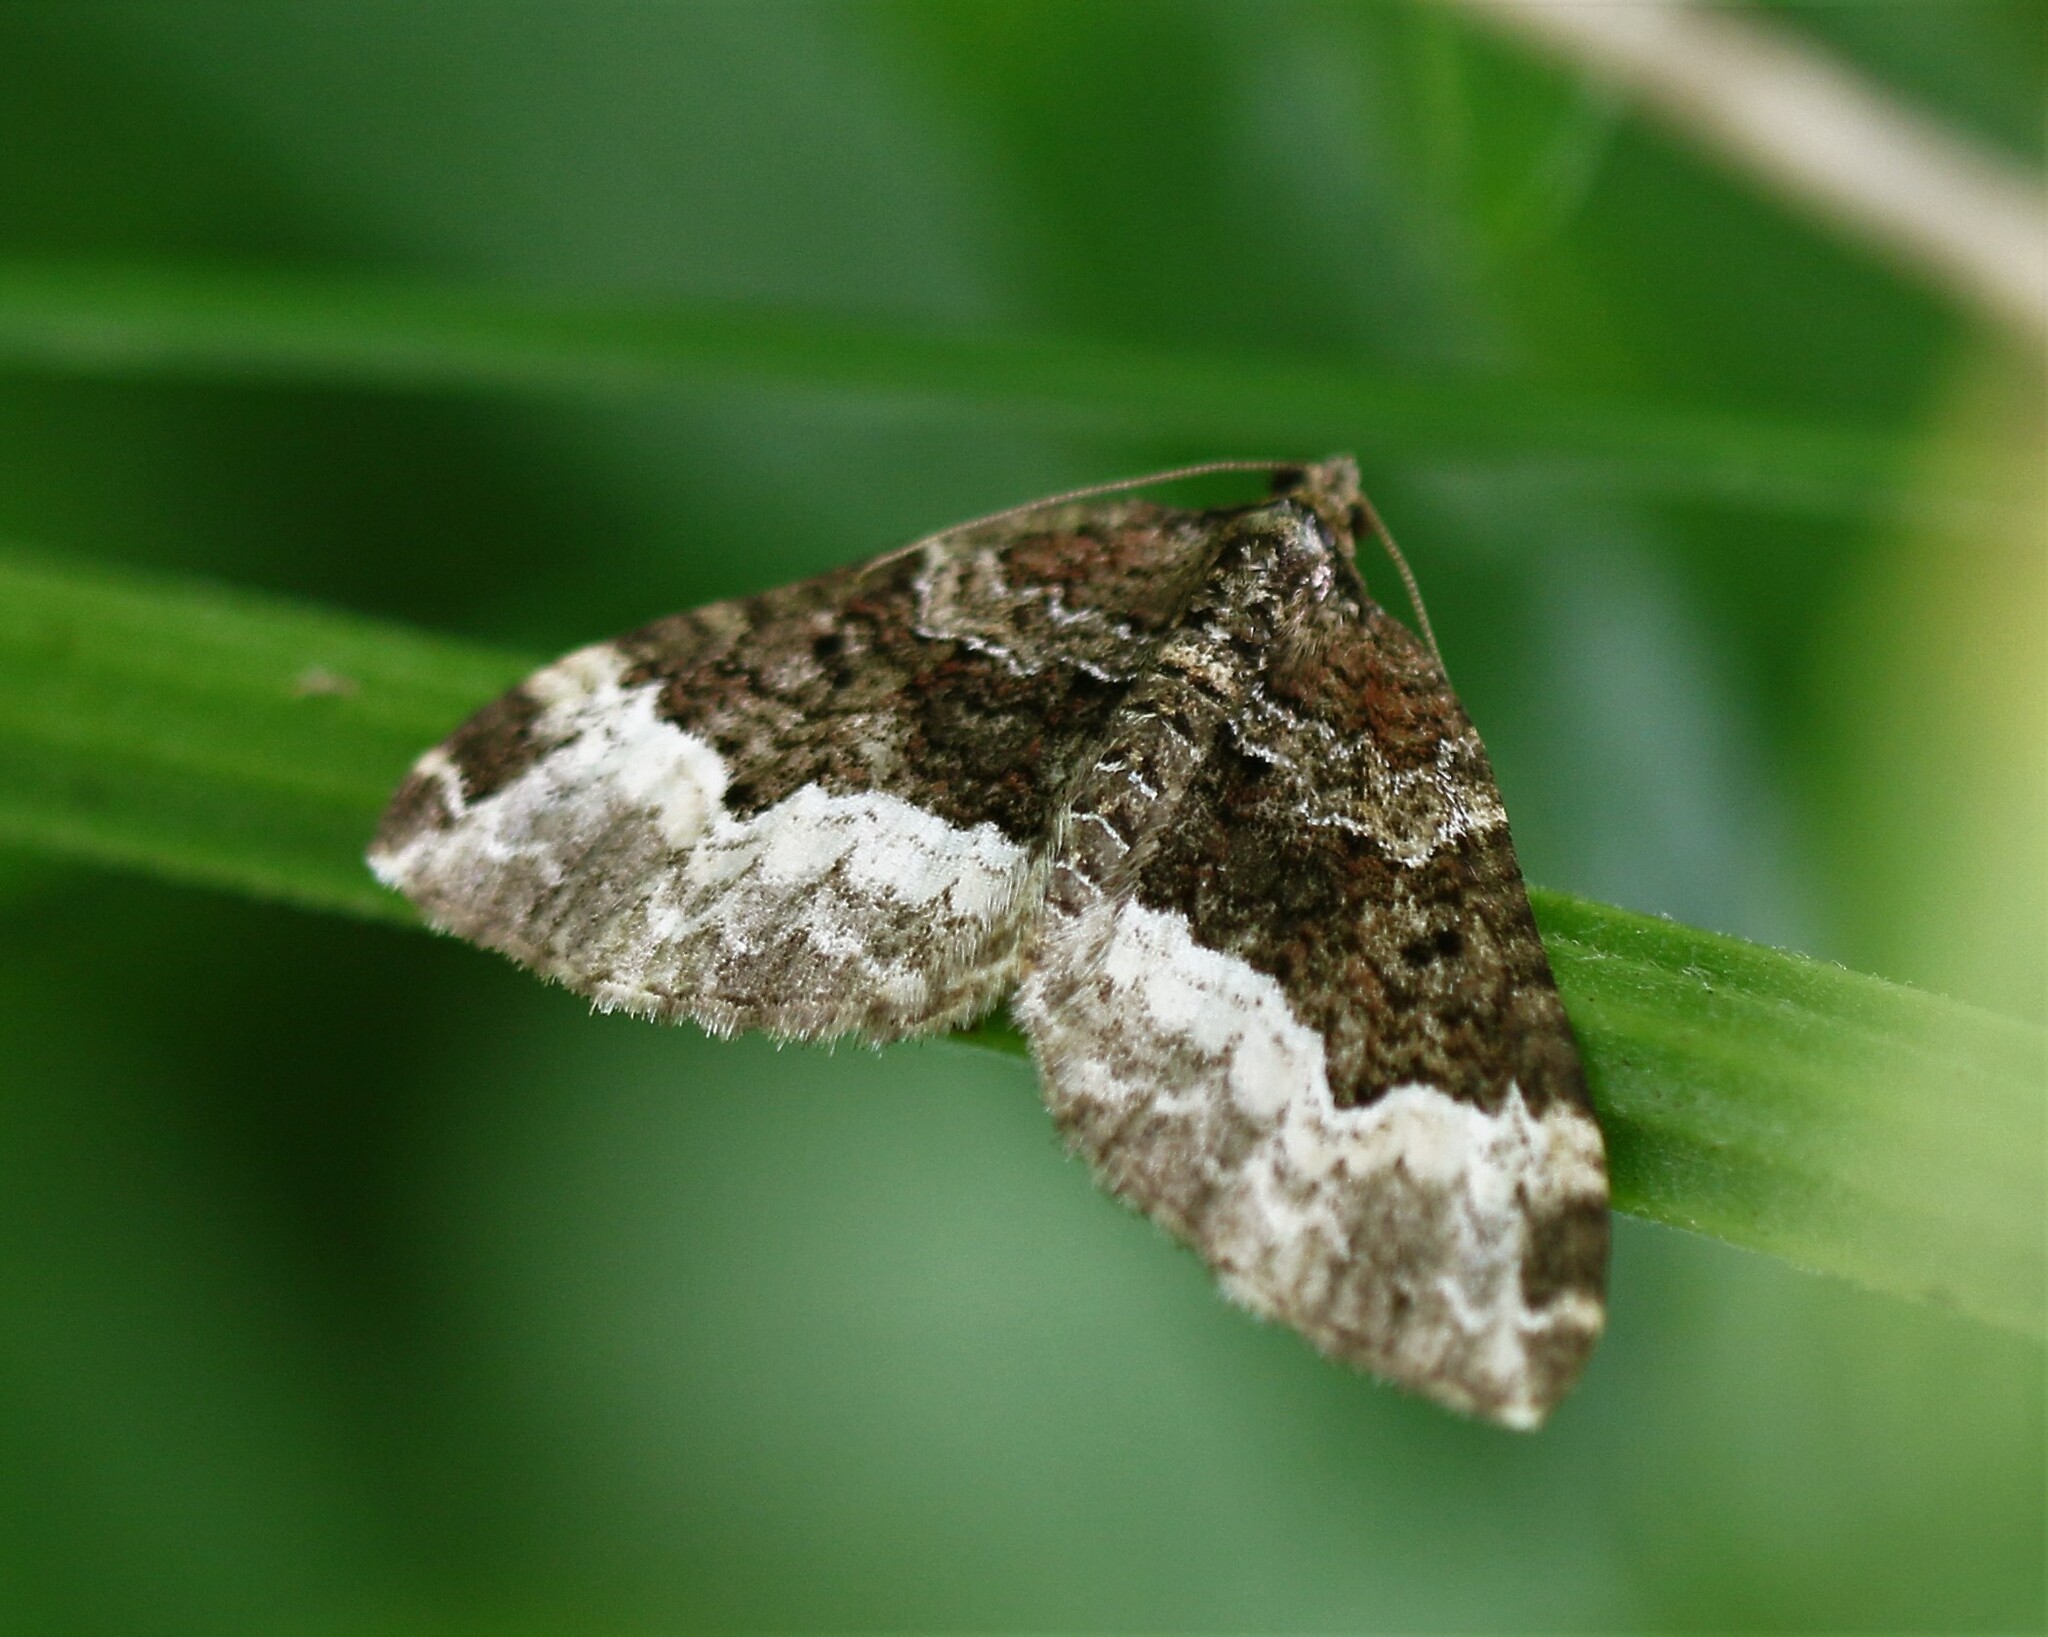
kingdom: Animalia
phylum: Arthropoda
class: Insecta
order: Lepidoptera
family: Geometridae
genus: Euphyia
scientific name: Euphyia intermediata
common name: Sharp-angled carpet
